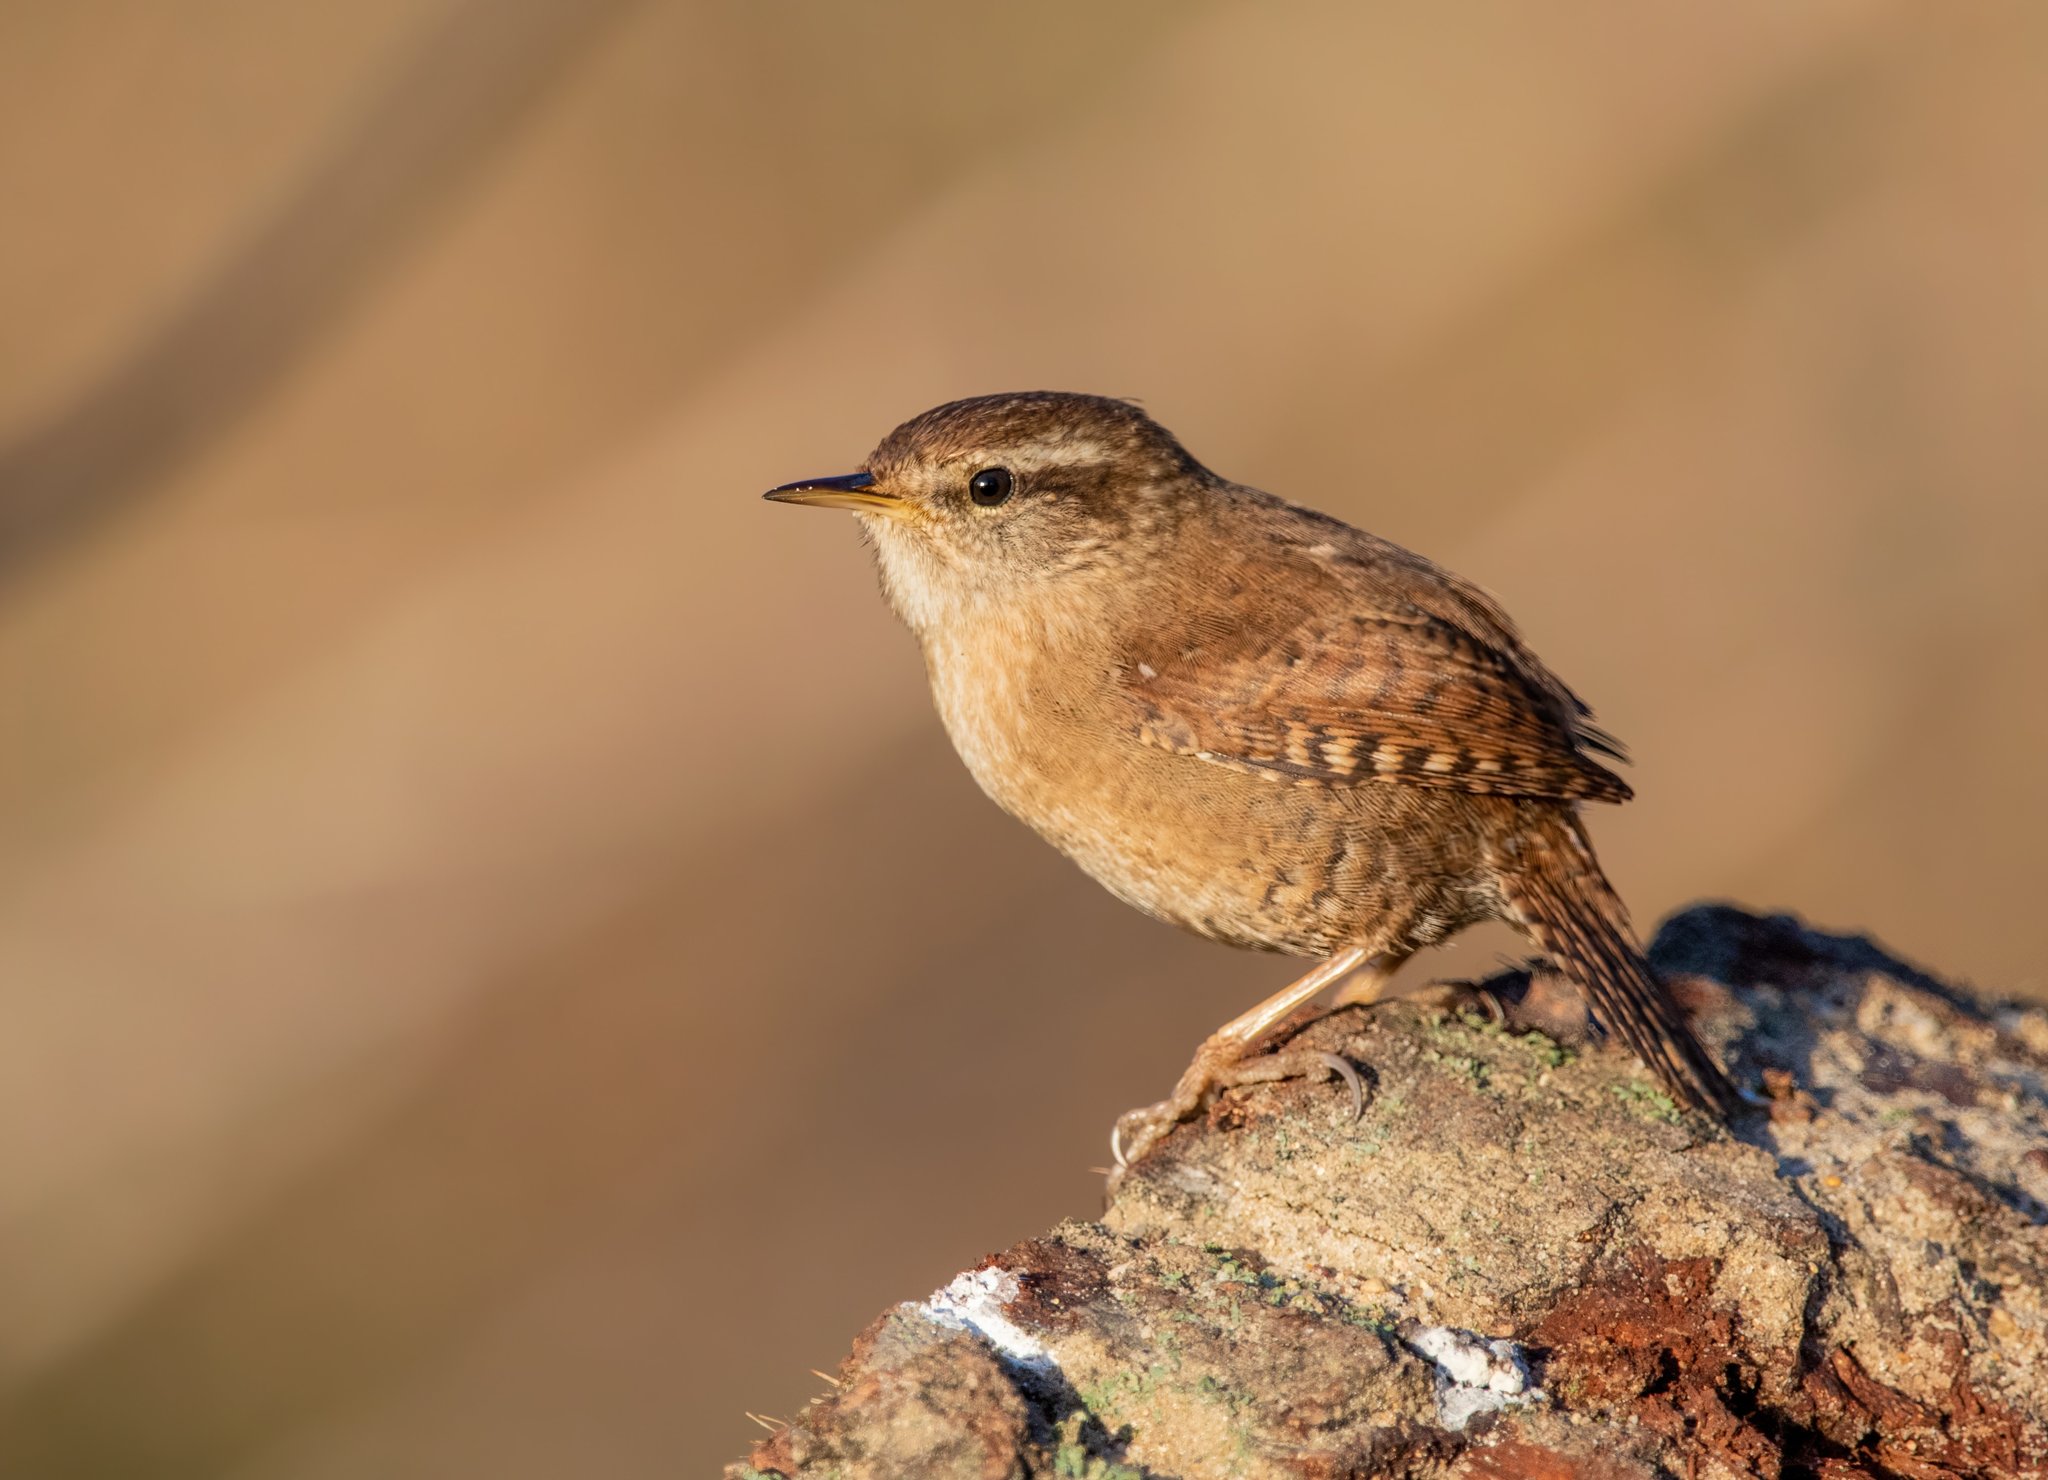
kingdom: Animalia
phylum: Chordata
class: Aves
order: Passeriformes
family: Troglodytidae
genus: Troglodytes
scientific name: Troglodytes troglodytes
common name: Eurasian wren
